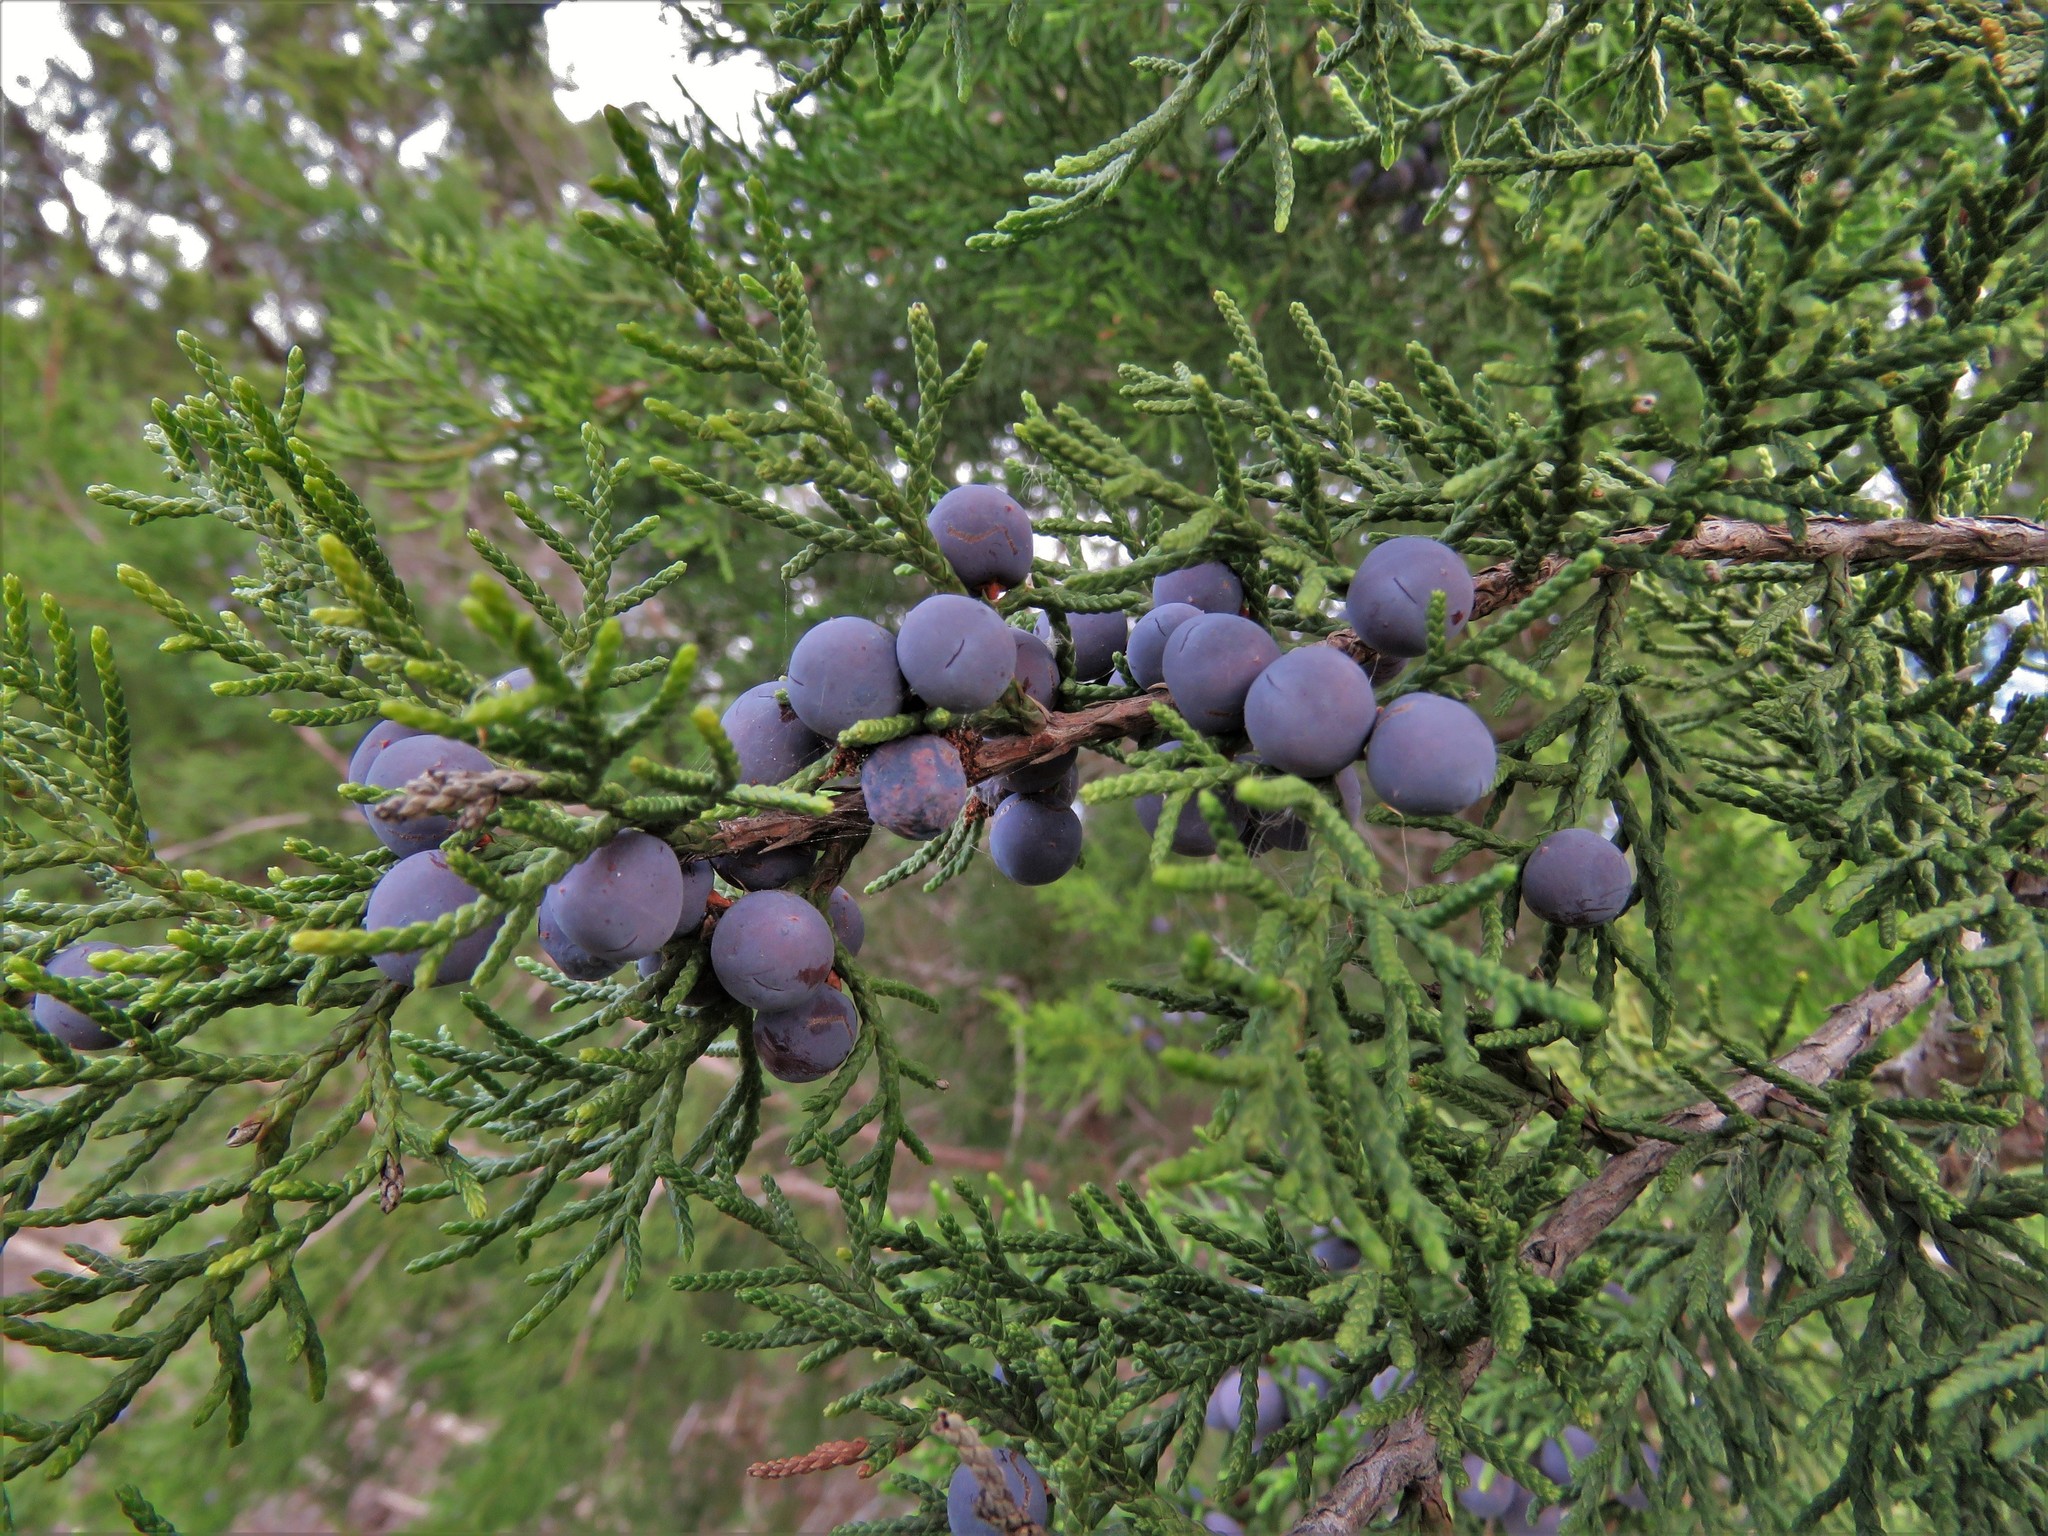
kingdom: Plantae
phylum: Tracheophyta
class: Pinopsida
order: Pinales
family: Cupressaceae
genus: Juniperus
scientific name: Juniperus ashei
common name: Mexican juniper
